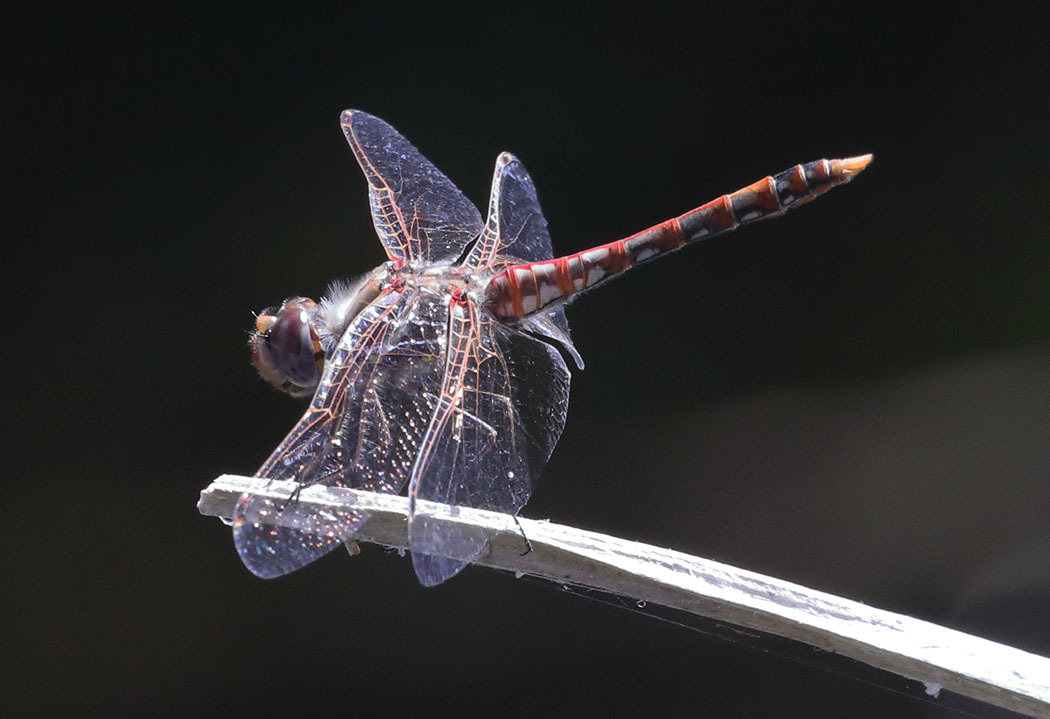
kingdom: Animalia
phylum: Arthropoda
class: Insecta
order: Odonata
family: Libellulidae
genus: Sympetrum
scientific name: Sympetrum corruptum
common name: Variegated meadowhawk
